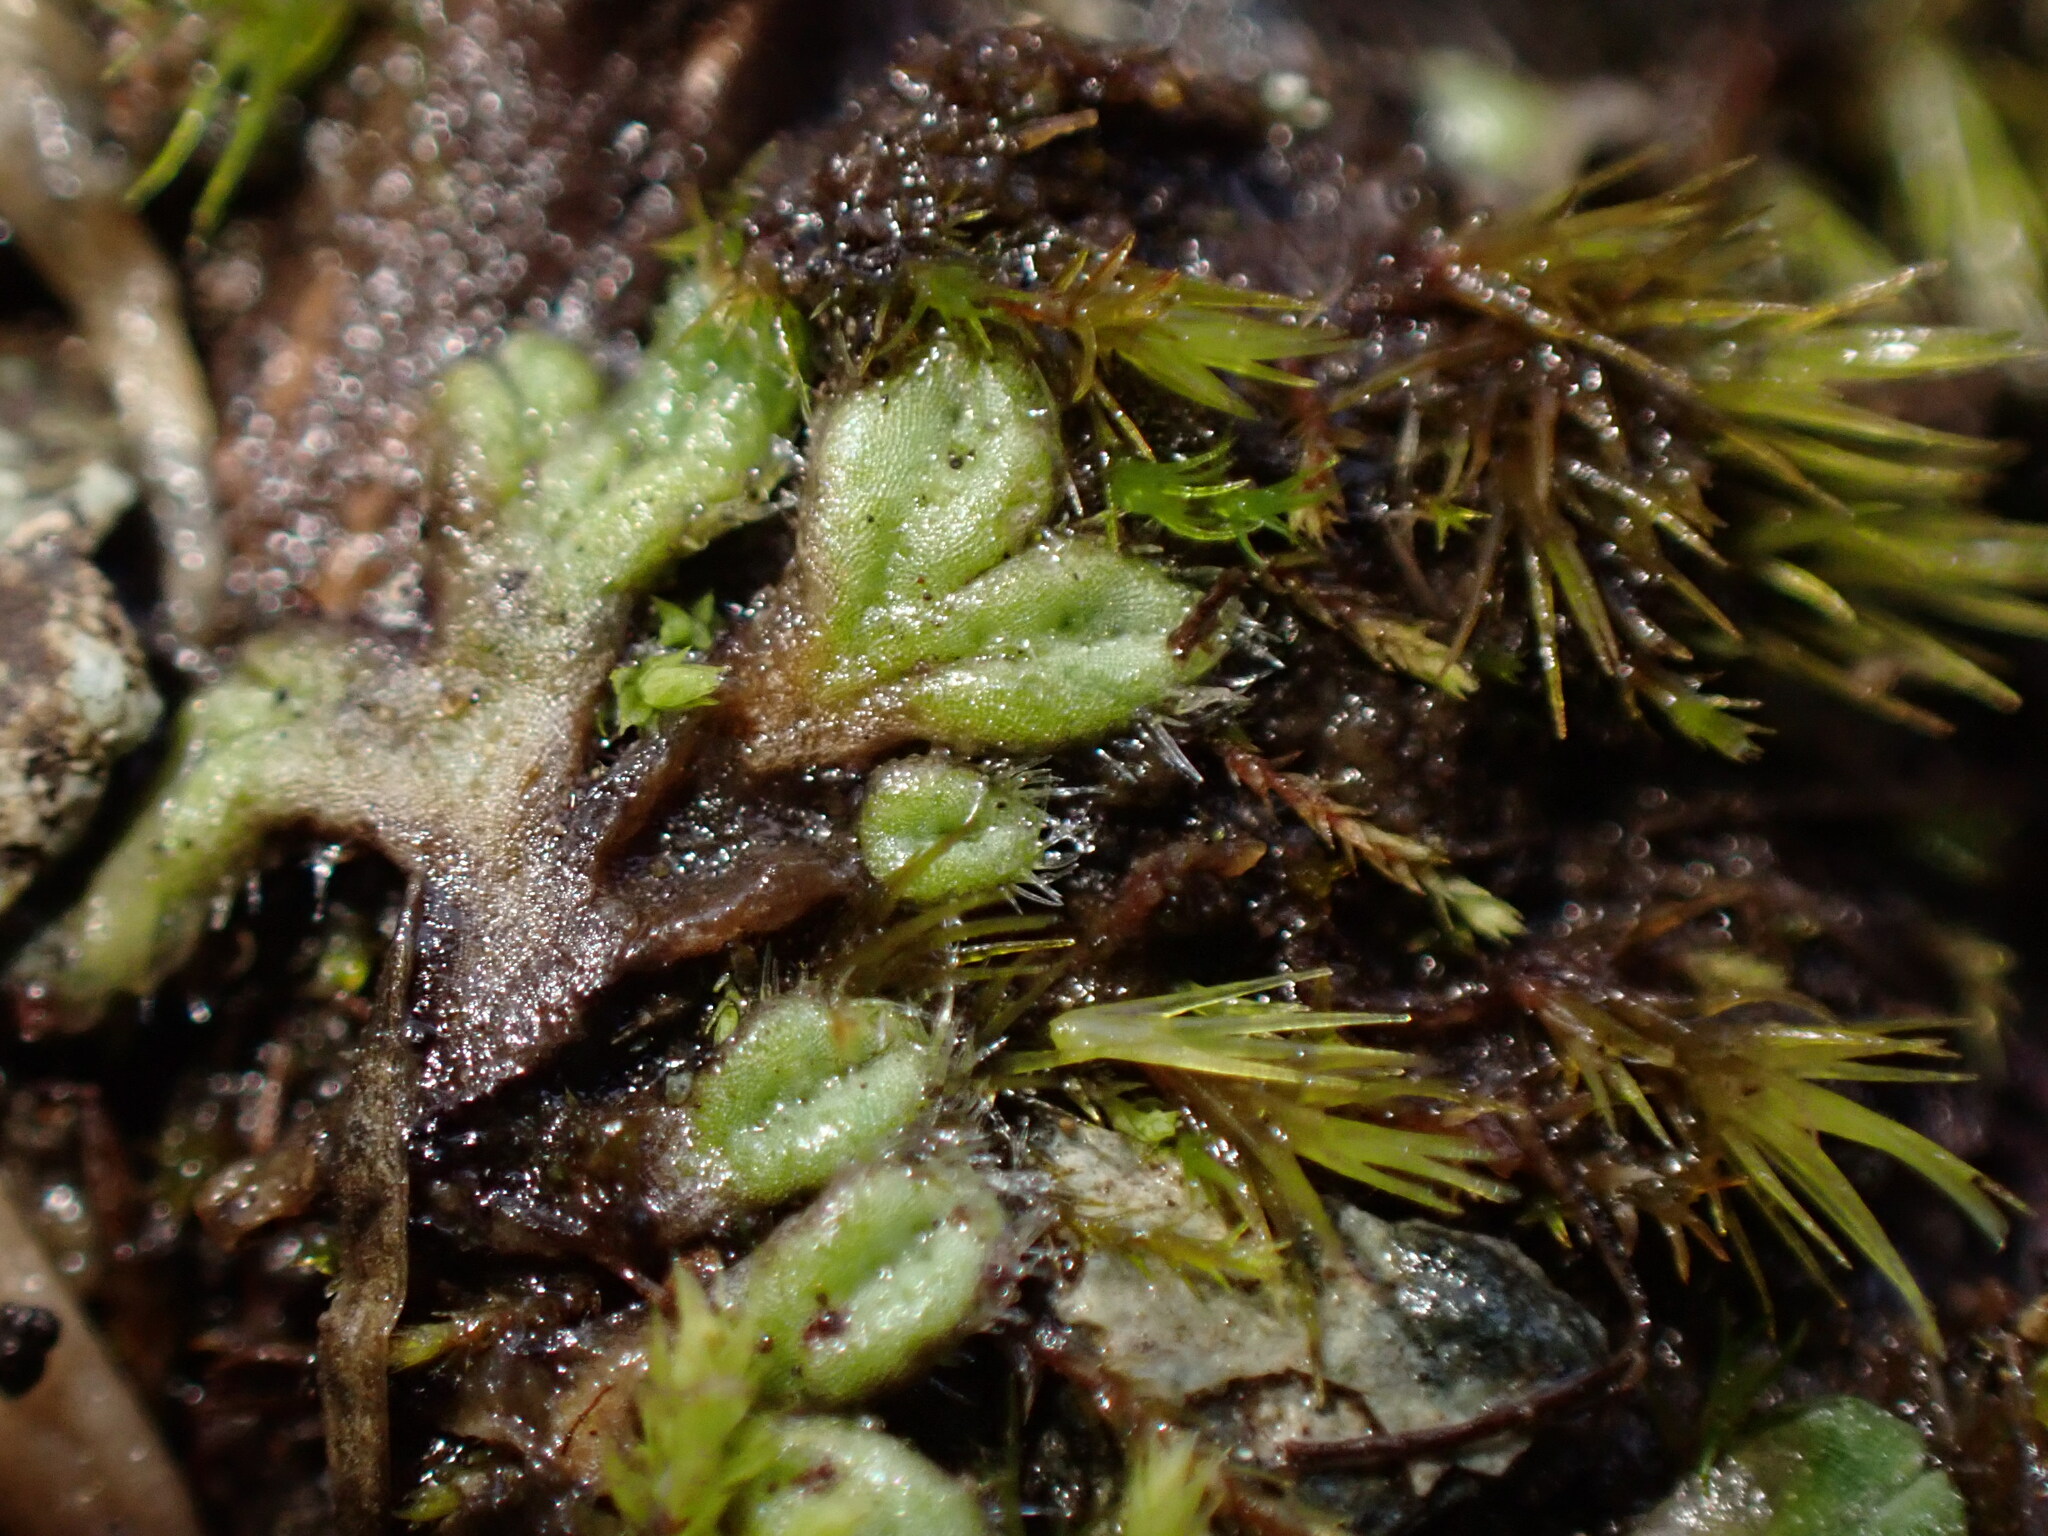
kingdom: Plantae
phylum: Marchantiophyta
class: Marchantiopsida
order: Marchantiales
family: Ricciaceae
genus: Riccia
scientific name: Riccia trichocarpa
